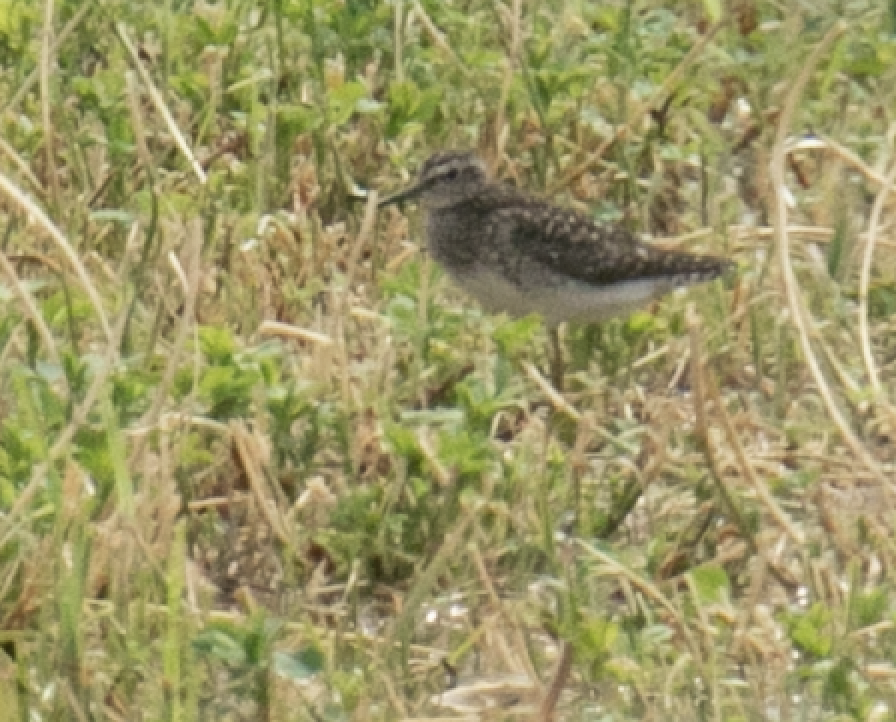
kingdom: Animalia
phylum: Chordata
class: Aves
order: Charadriiformes
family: Scolopacidae
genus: Tringa
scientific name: Tringa glareola
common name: Wood sandpiper
